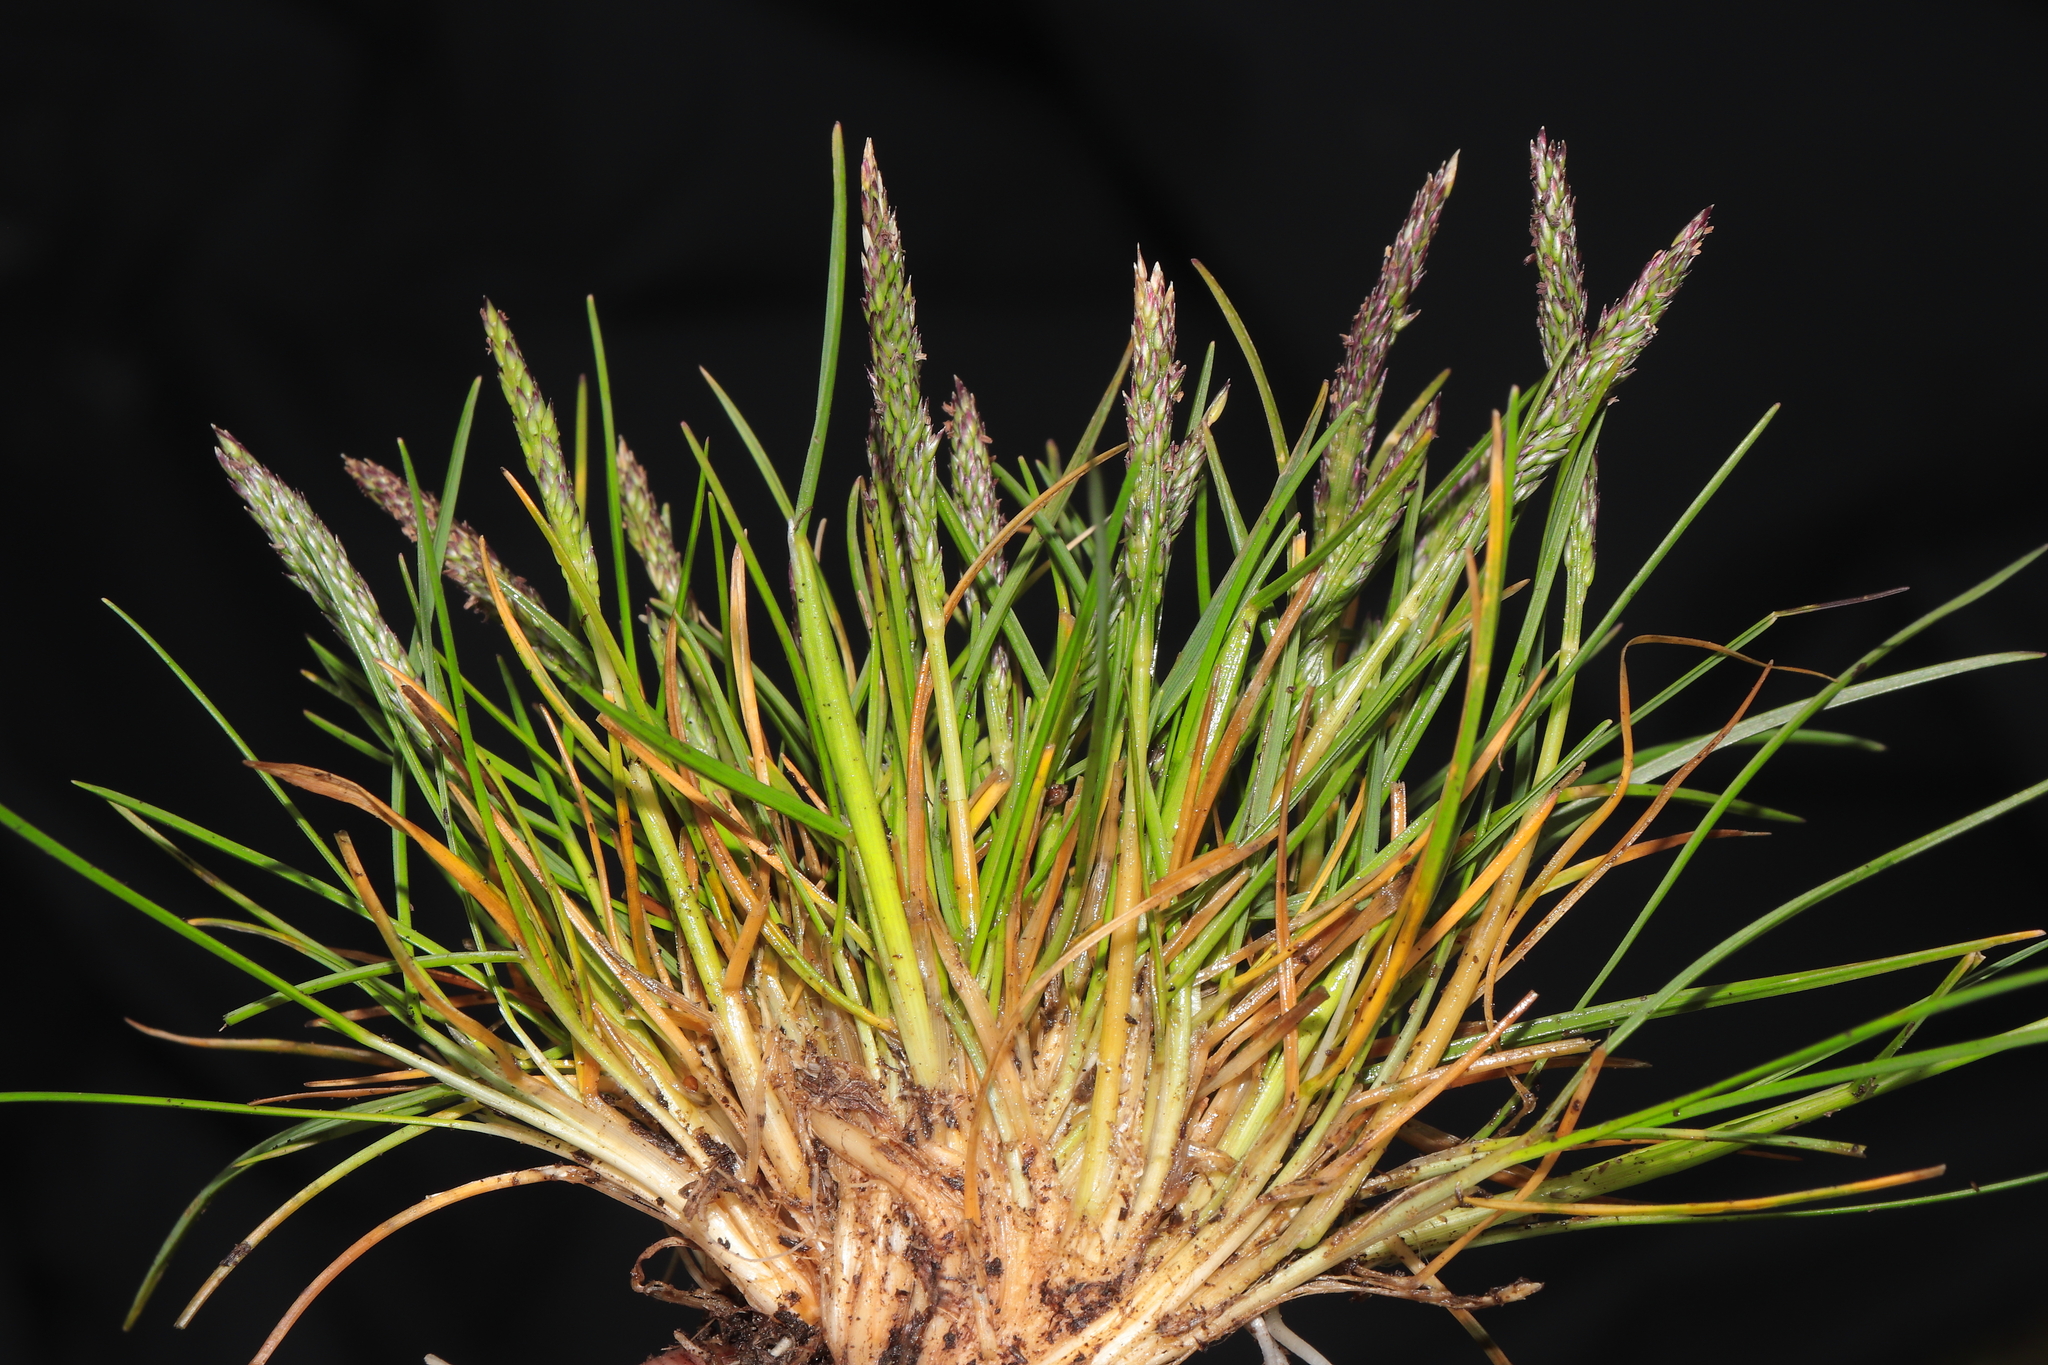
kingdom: Plantae
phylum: Tracheophyta
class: Liliopsida
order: Poales
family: Poaceae
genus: Agrostis
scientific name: Agrostis breviculmis
